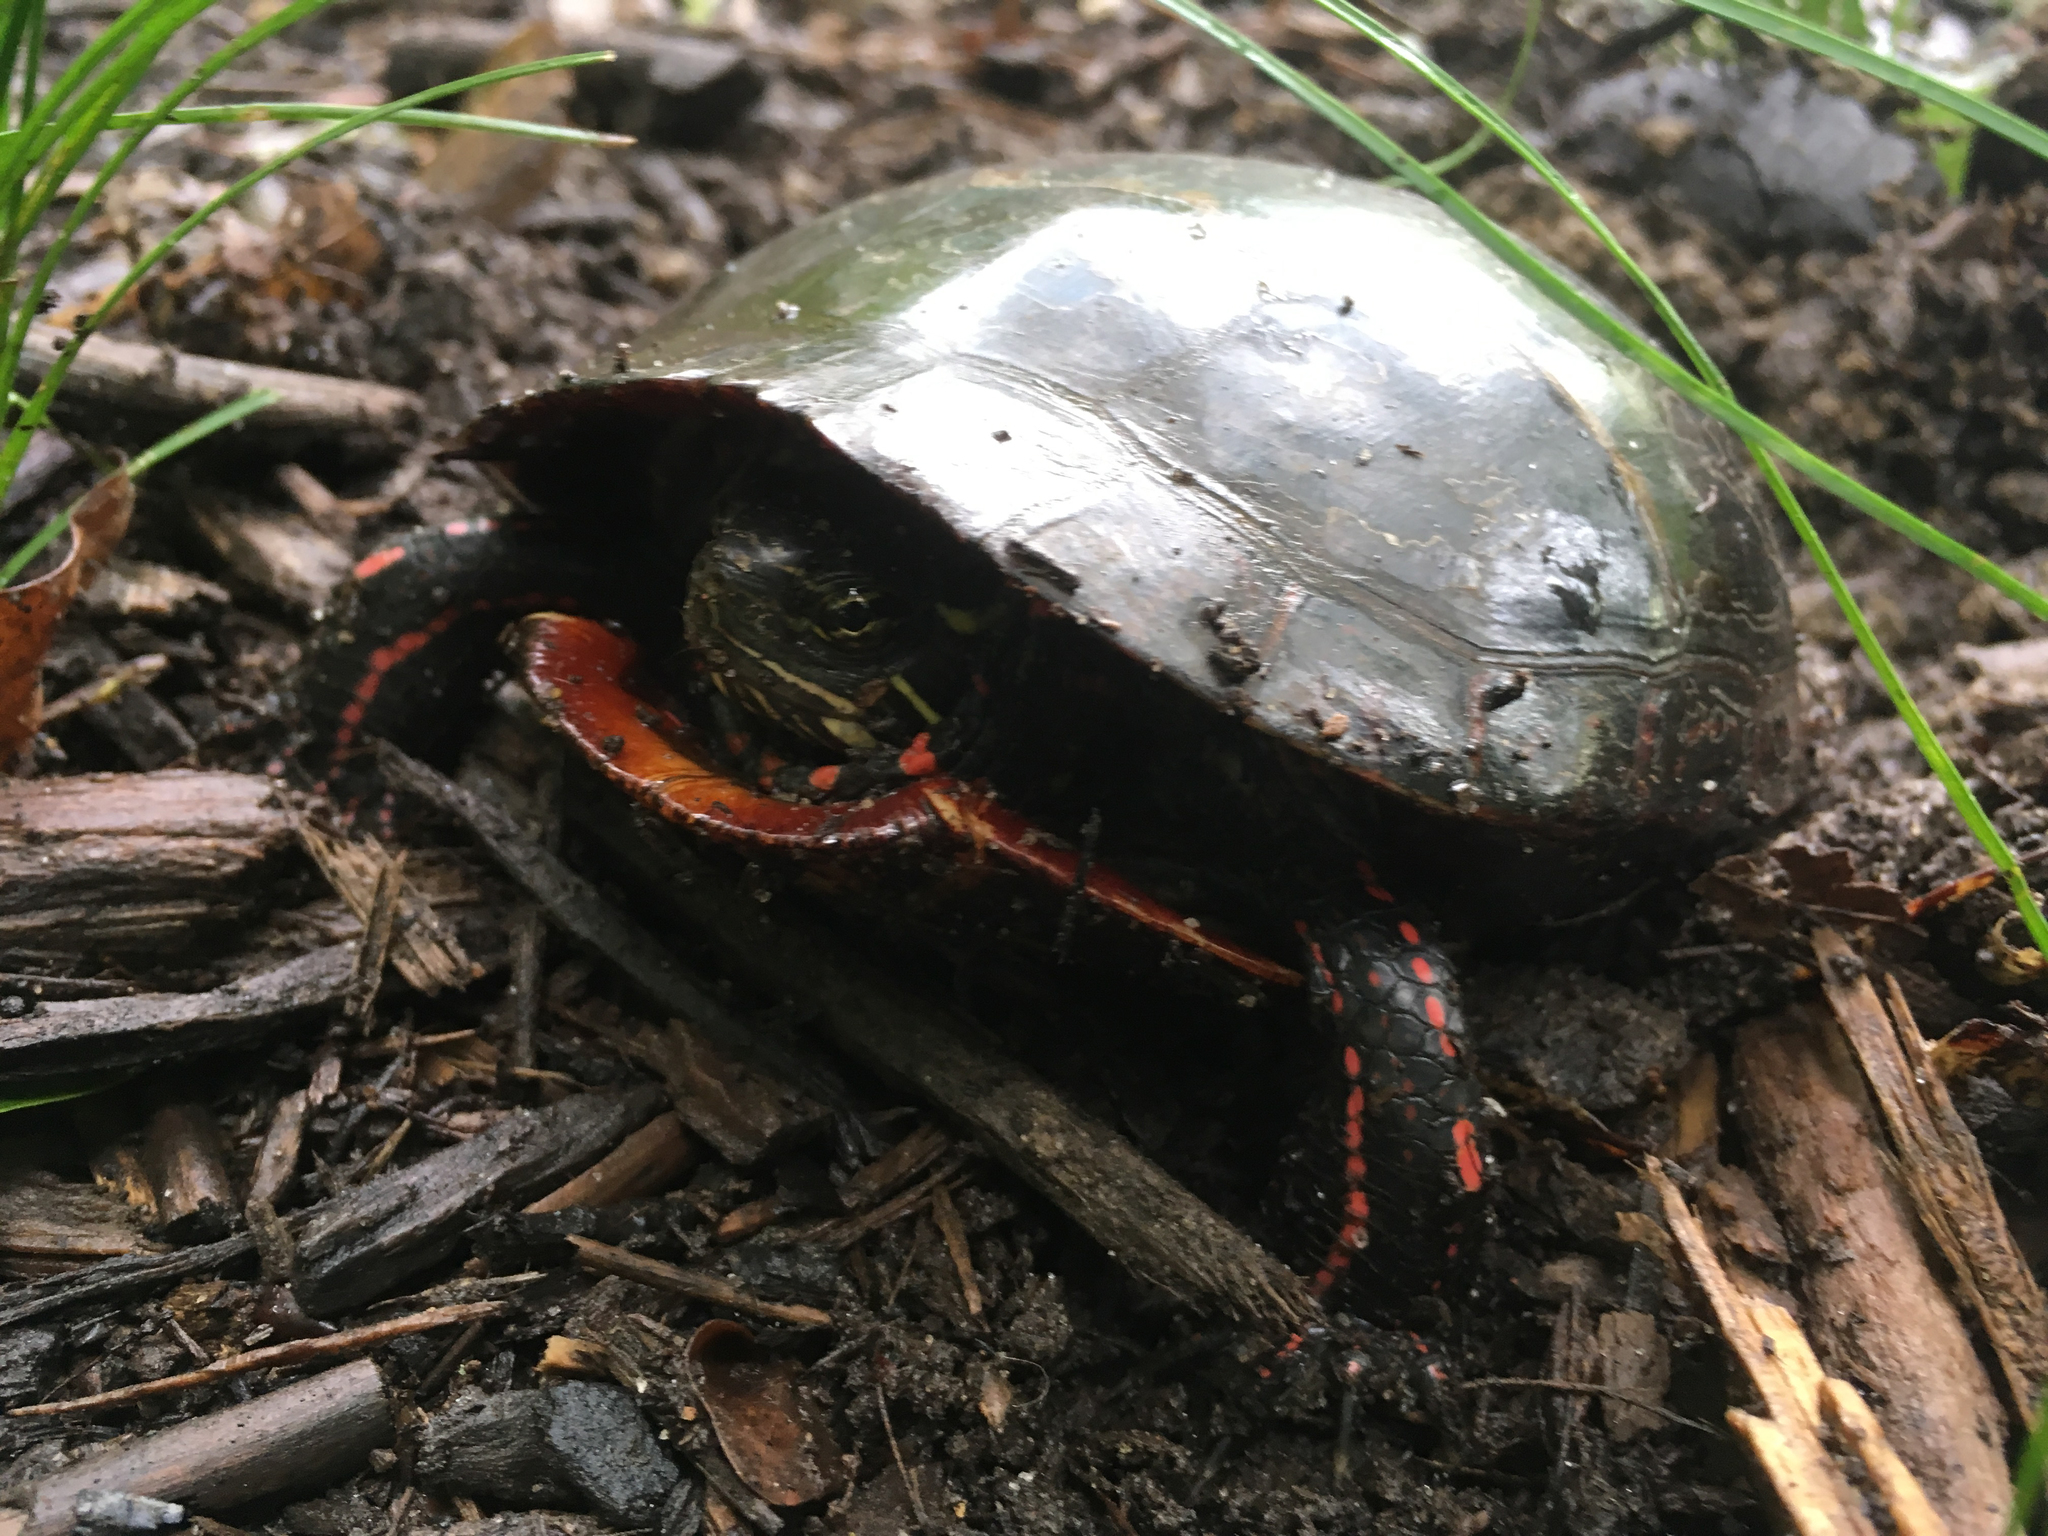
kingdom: Animalia
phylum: Chordata
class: Testudines
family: Emydidae
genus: Chrysemys
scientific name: Chrysemys picta
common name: Painted turtle
